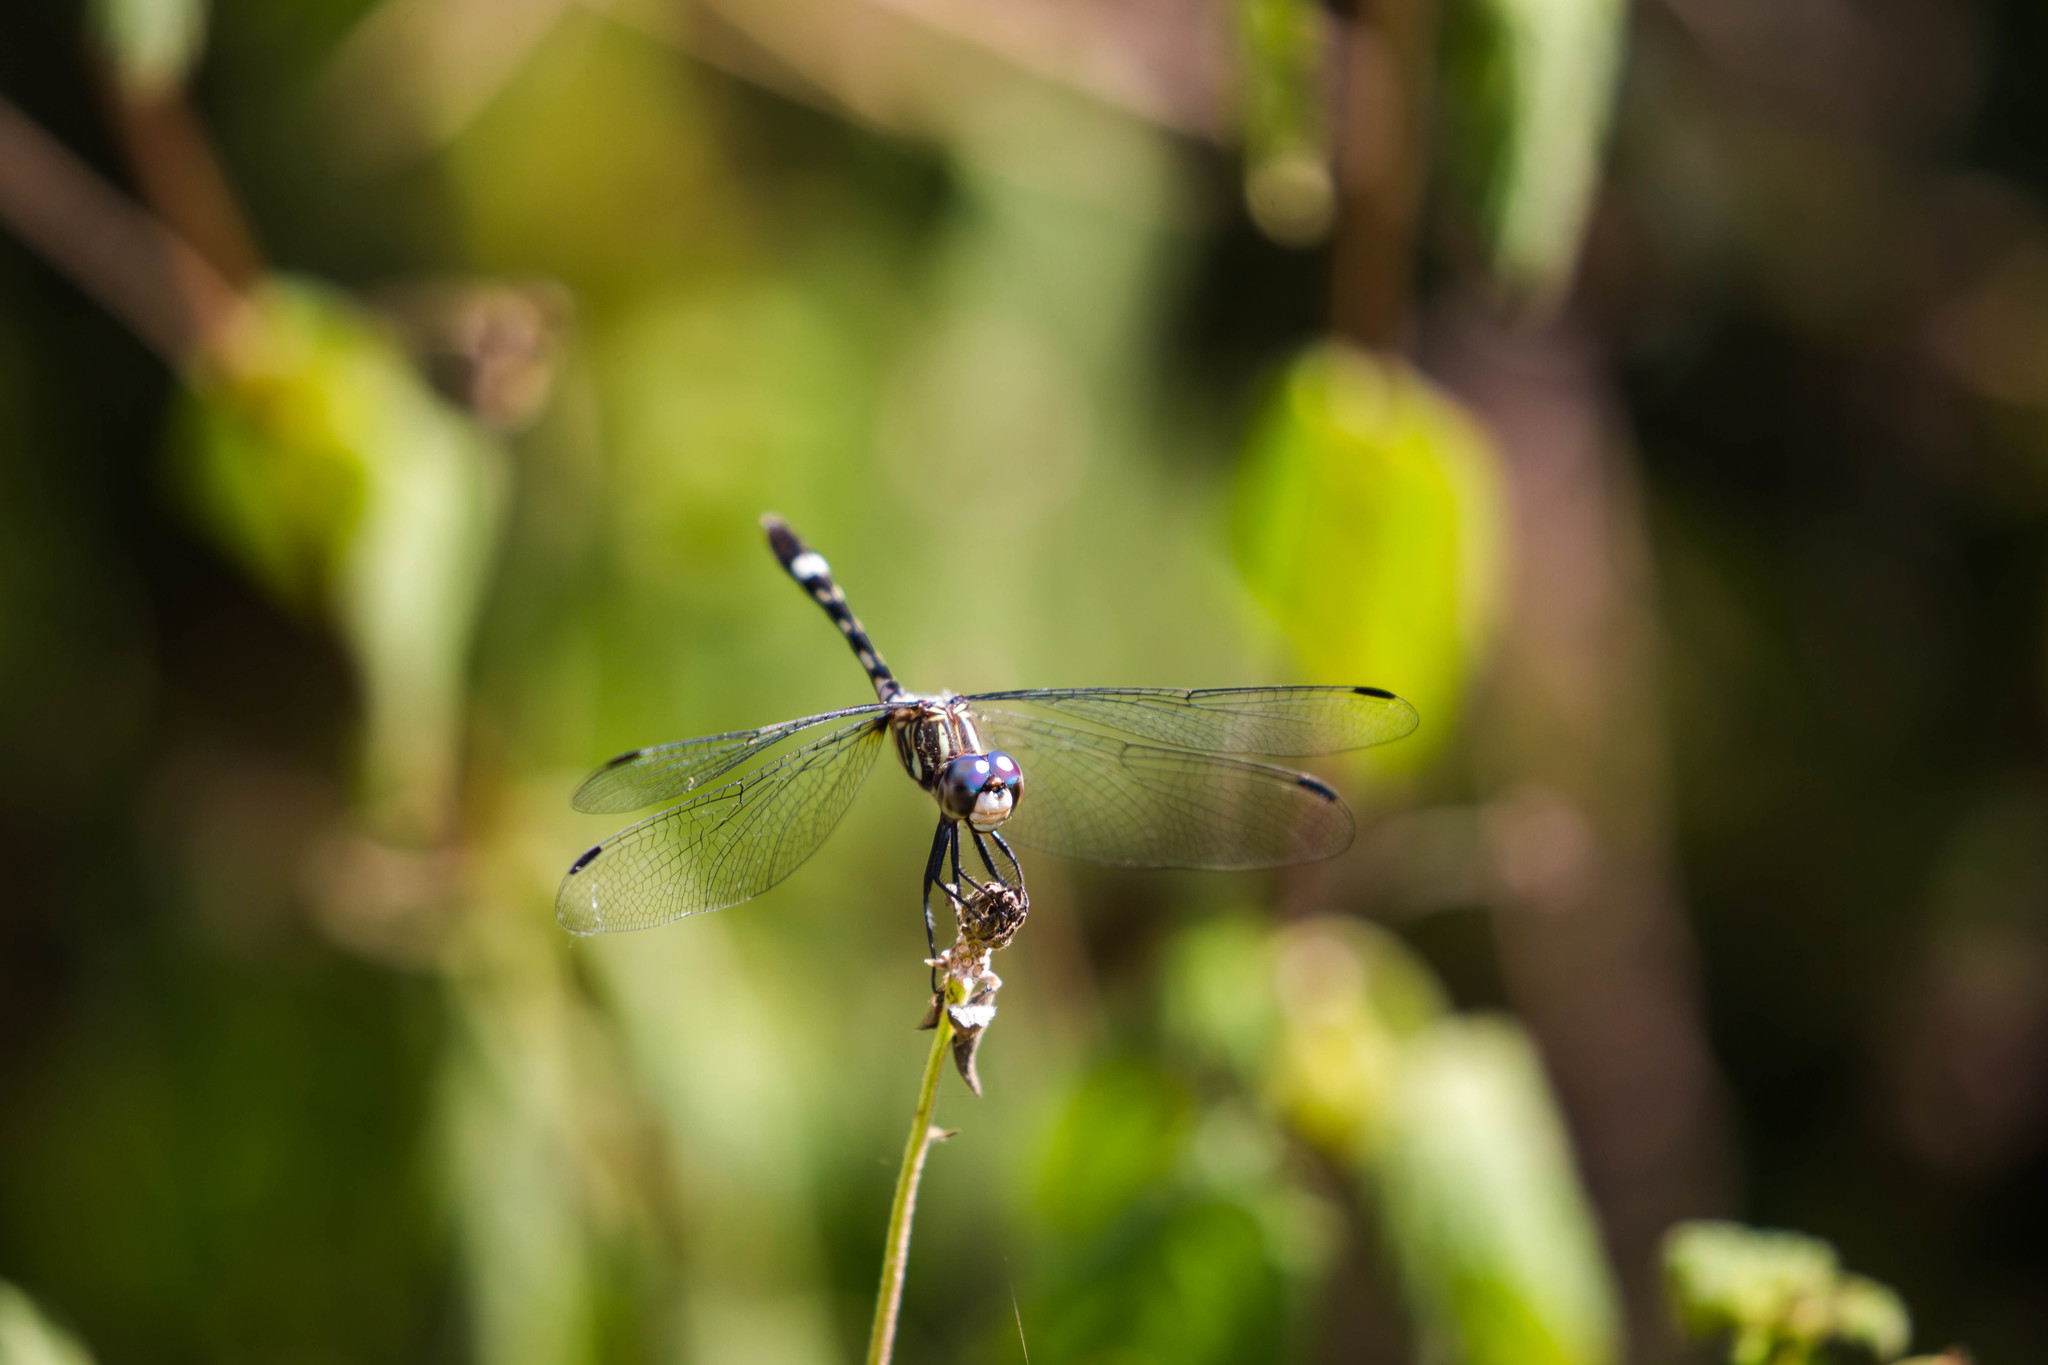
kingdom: Animalia
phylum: Arthropoda
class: Insecta
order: Odonata
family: Libellulidae
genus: Micrathyria
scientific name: Micrathyria hagenii
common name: Thornbush dasher
